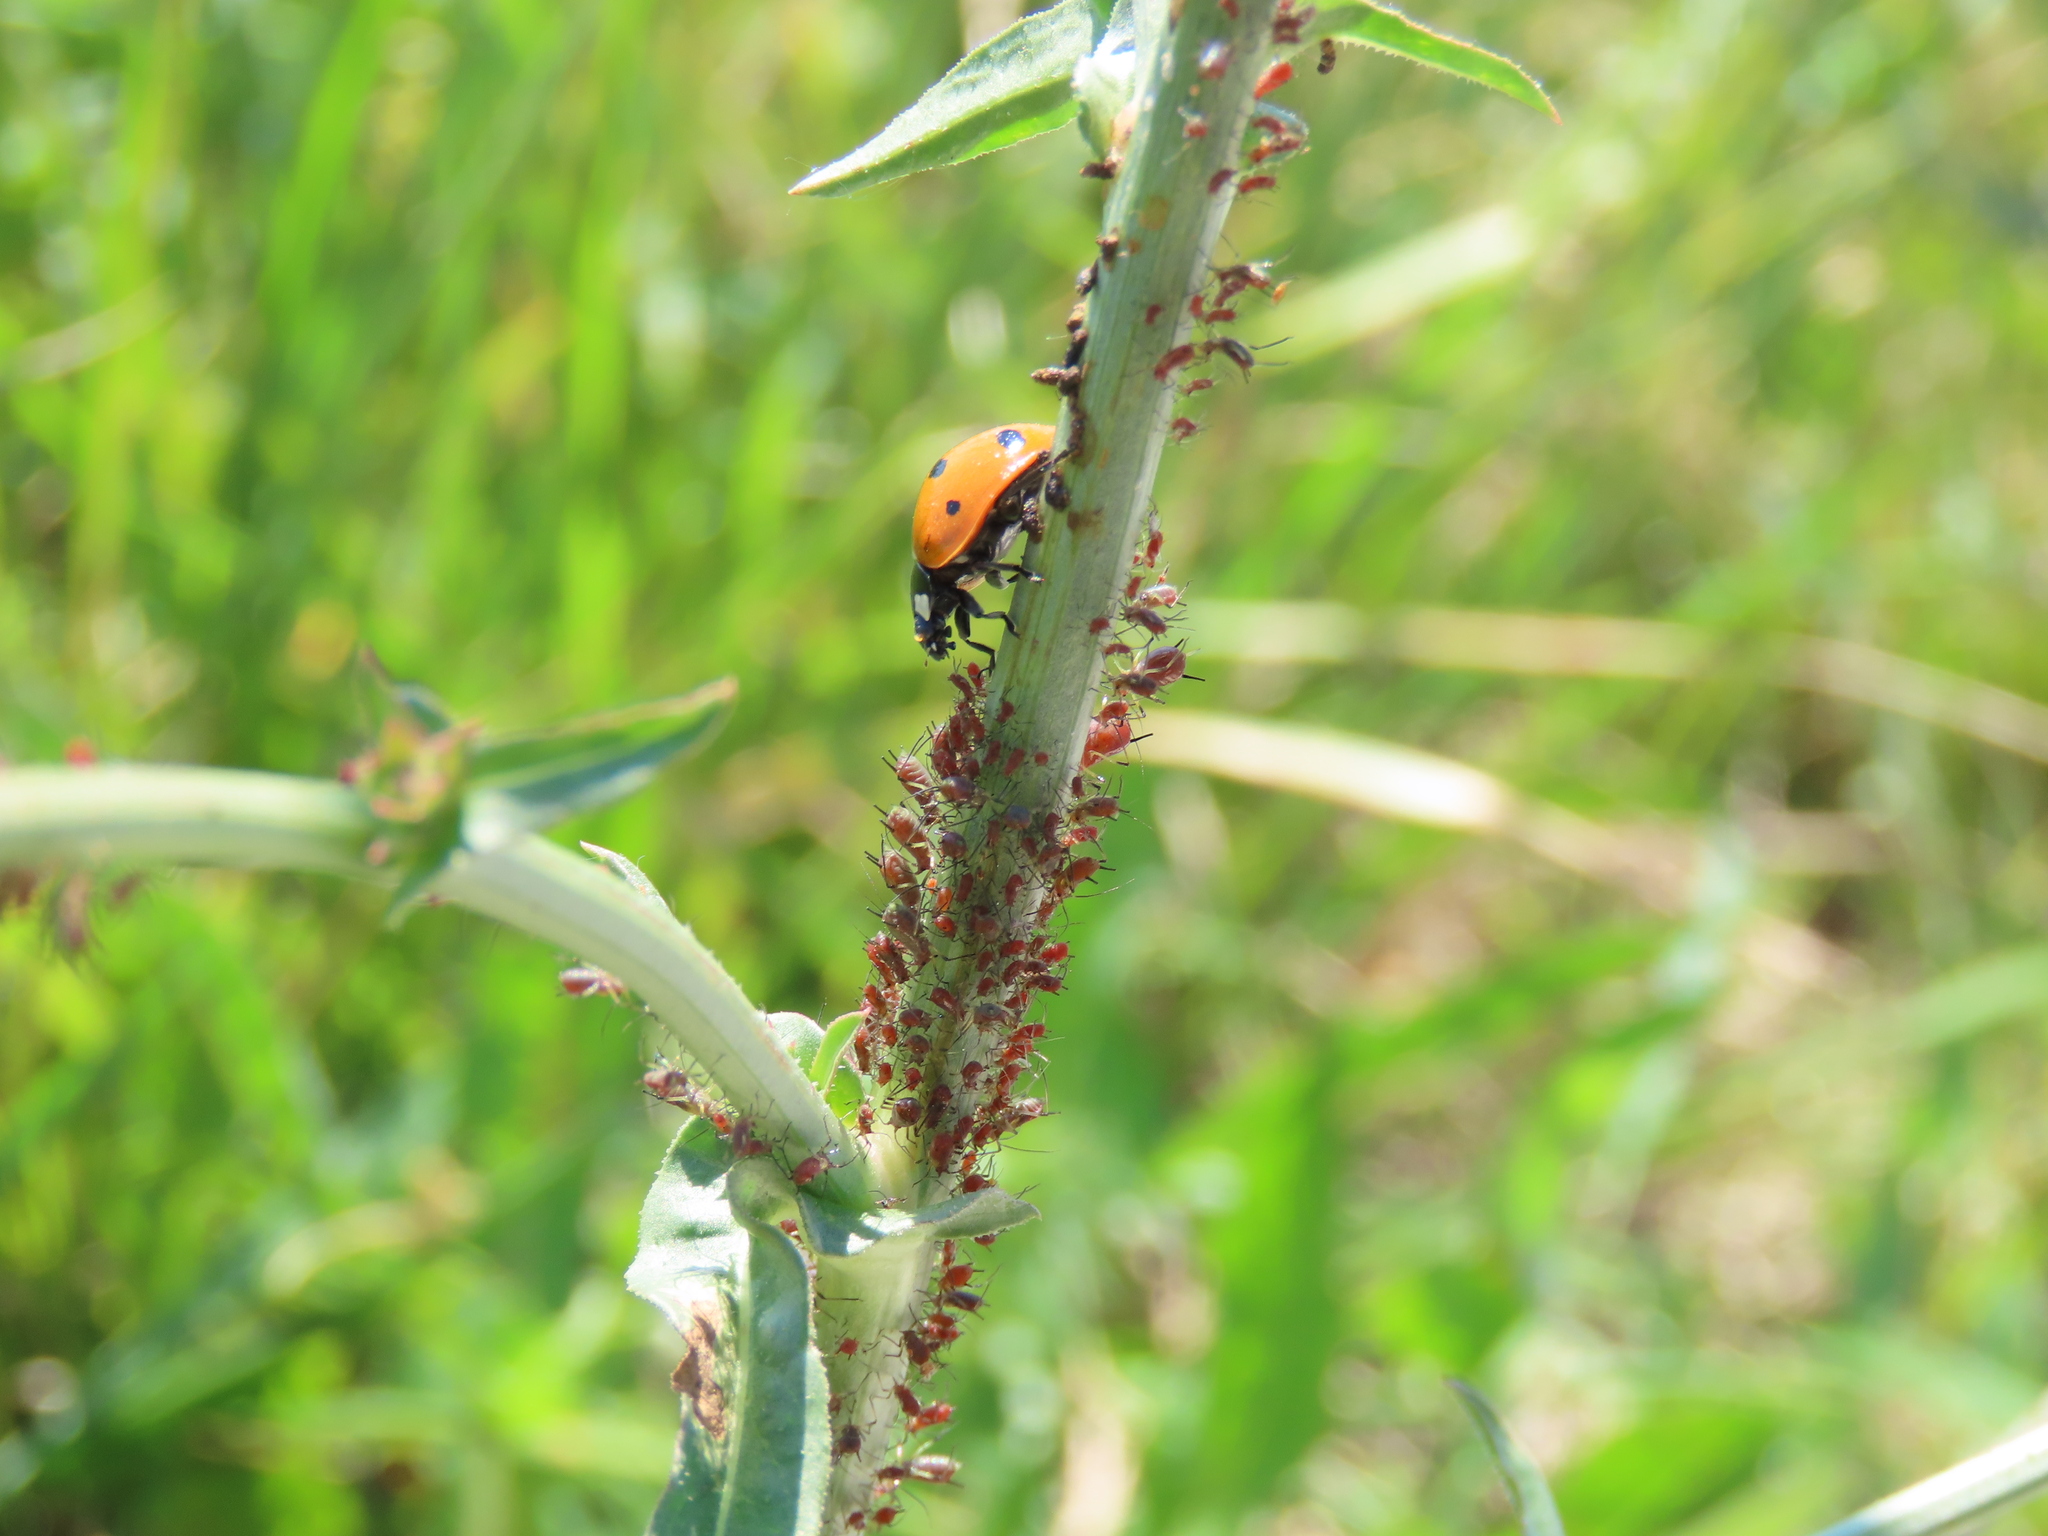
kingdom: Animalia
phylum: Arthropoda
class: Insecta
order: Coleoptera
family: Coccinellidae
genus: Coccinella
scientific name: Coccinella septempunctata
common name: Sevenspotted lady beetle
